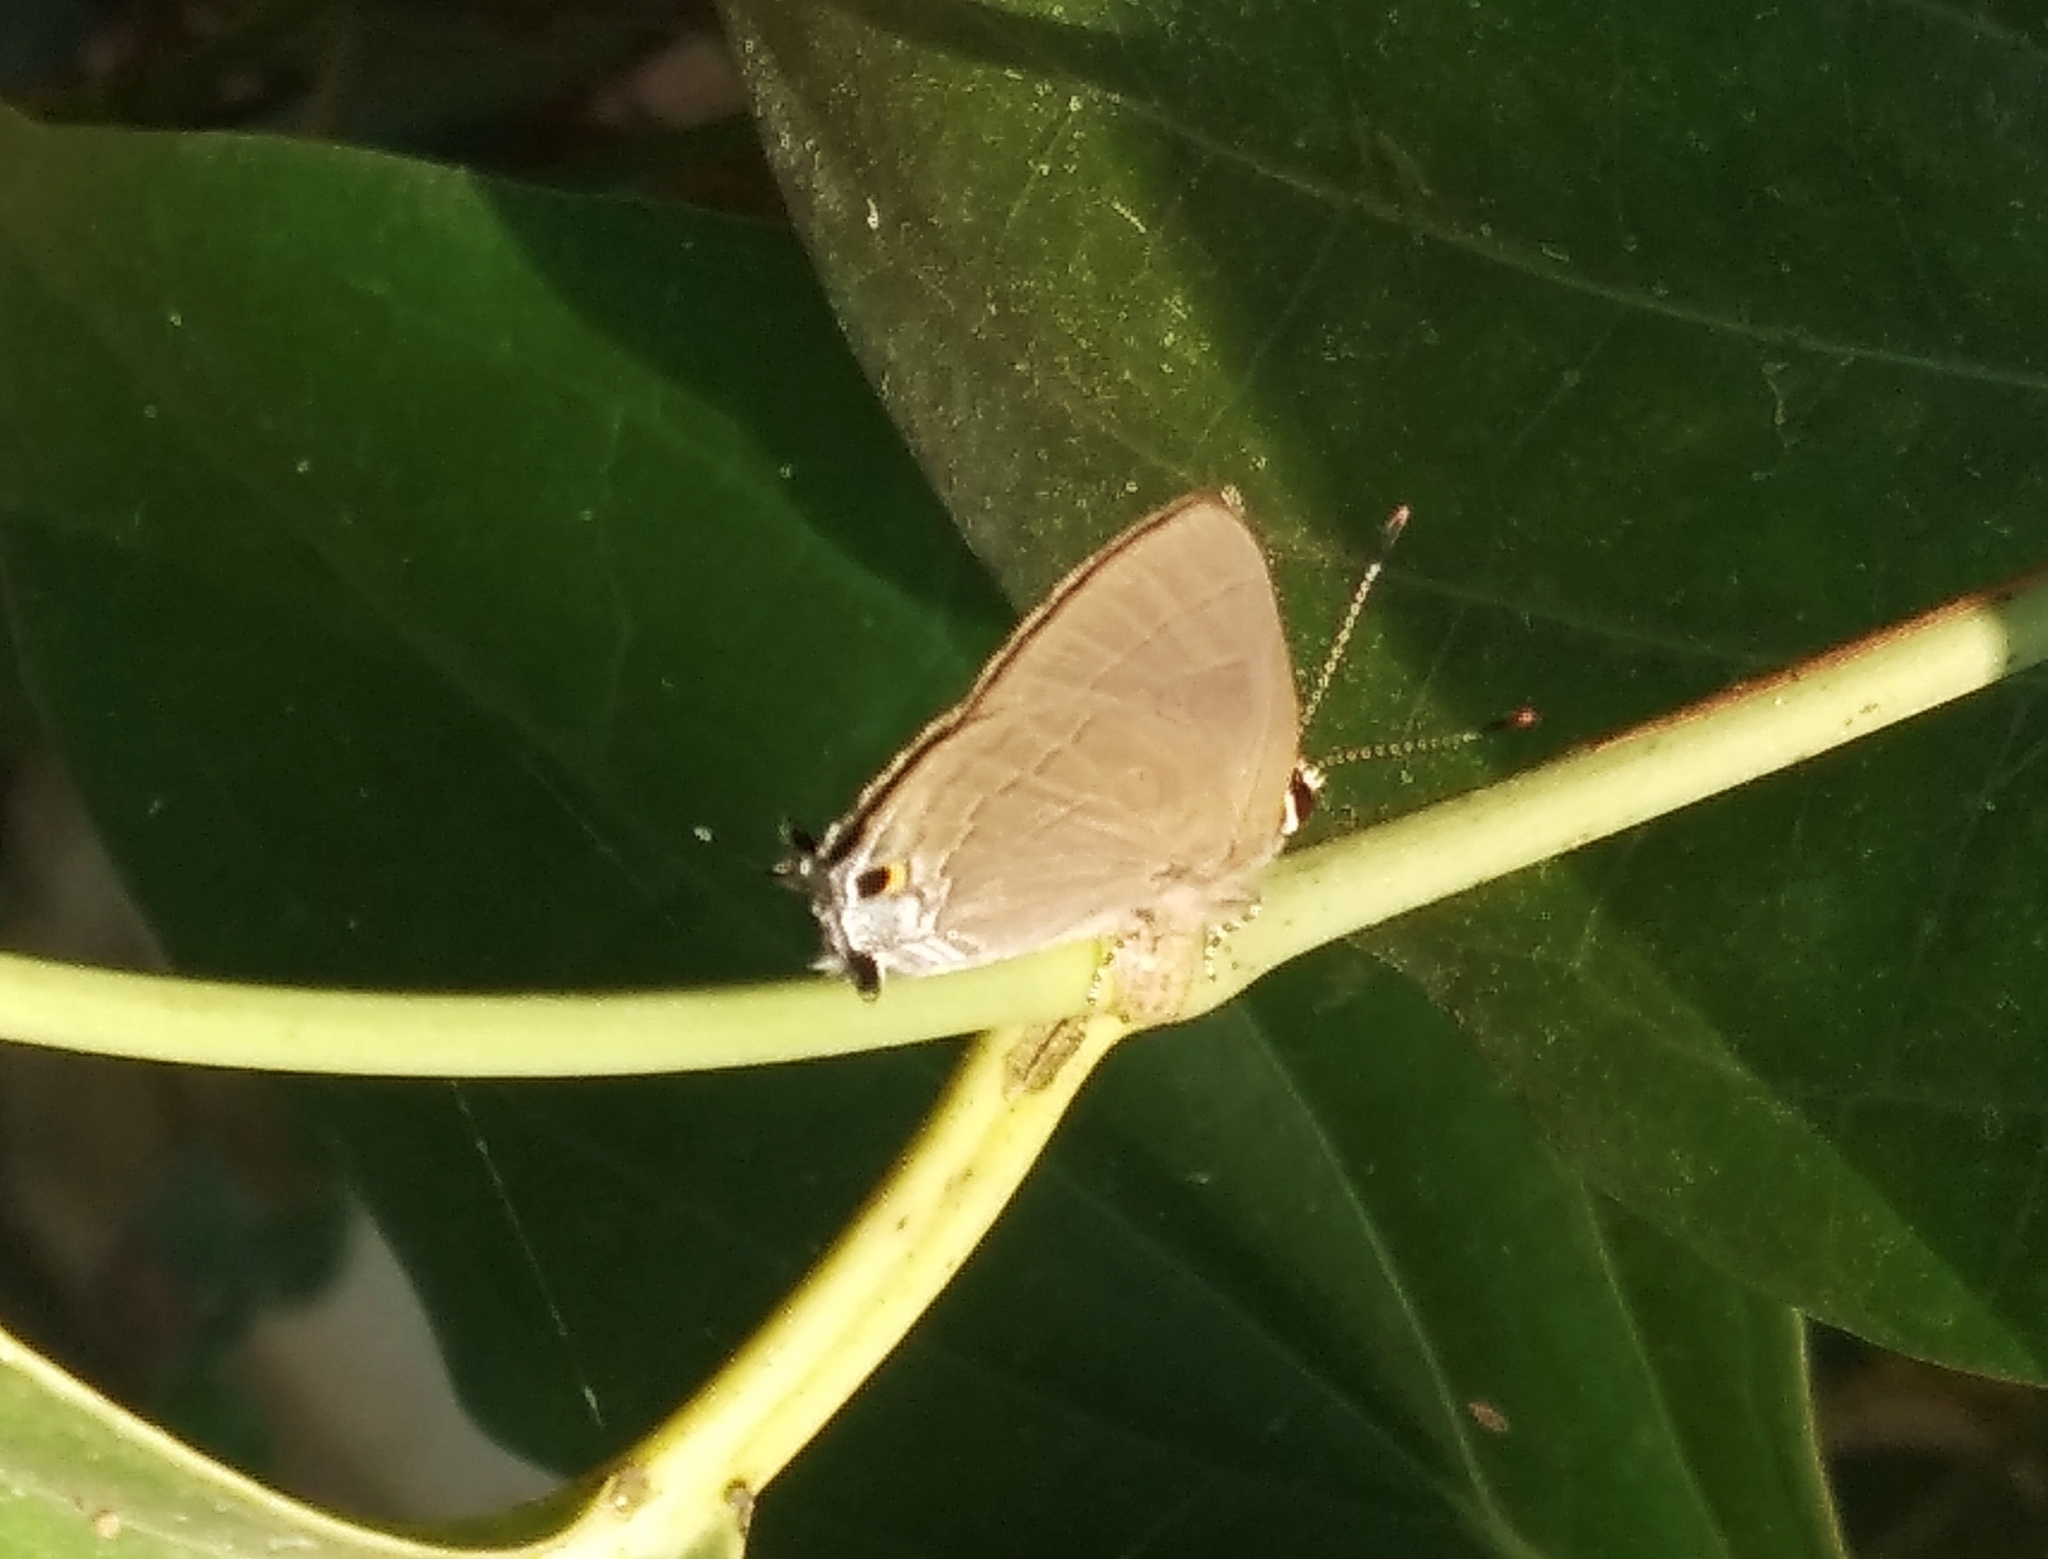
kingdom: Animalia
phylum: Arthropoda
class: Insecta
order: Lepidoptera
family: Lycaenidae
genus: Rapala
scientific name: Rapala manea
